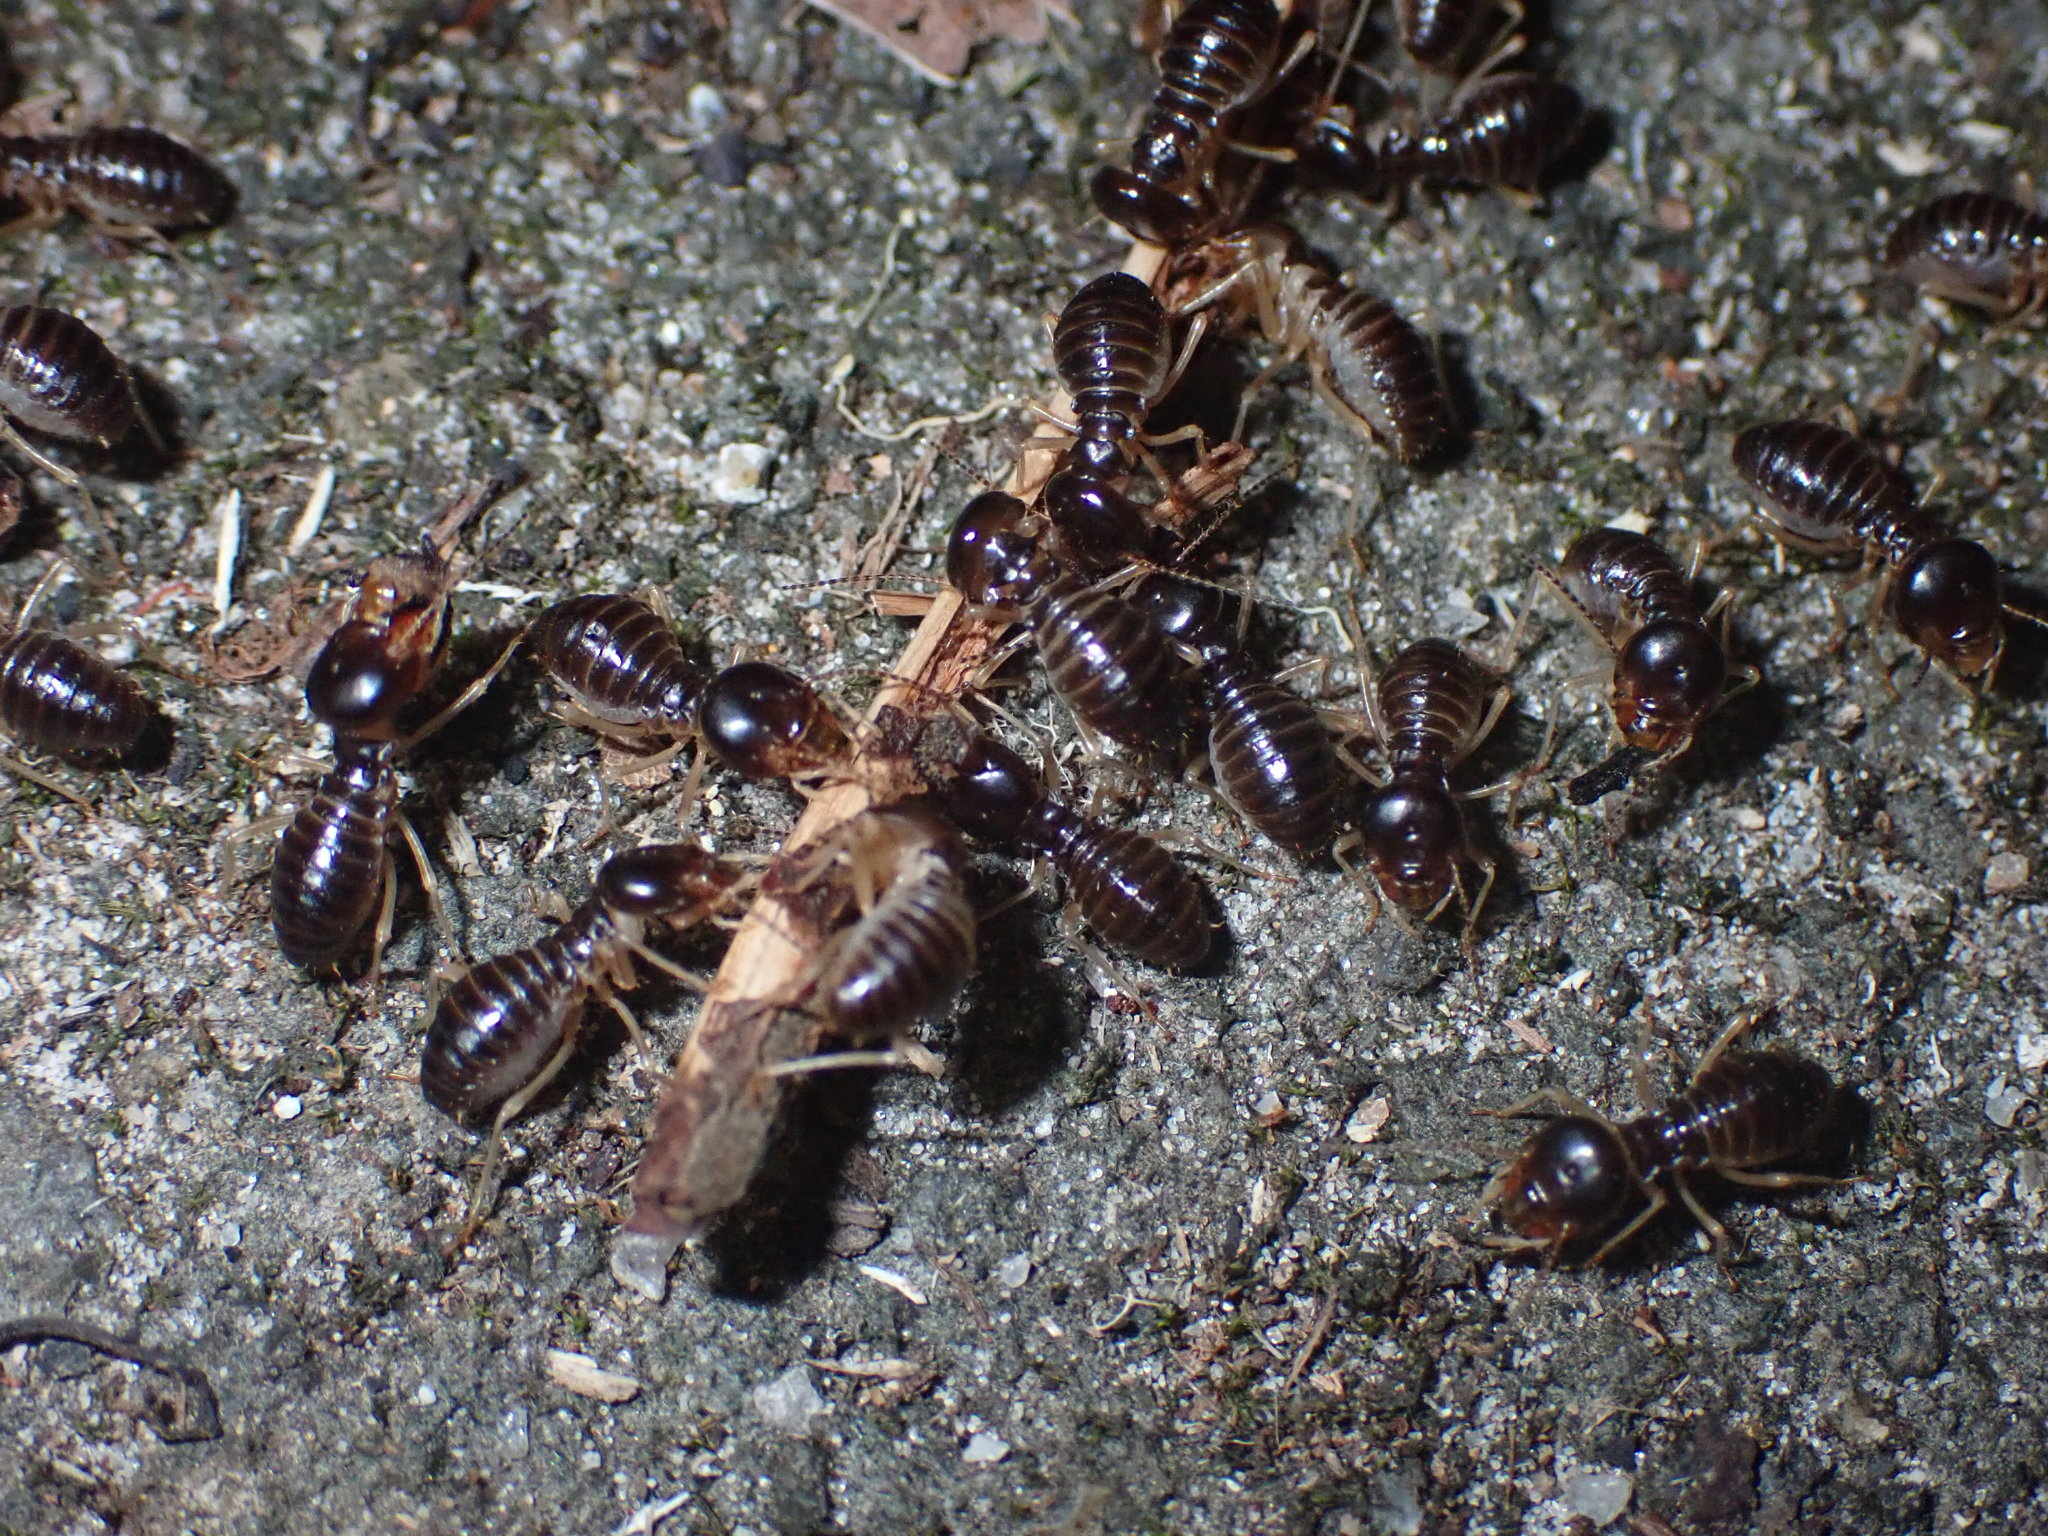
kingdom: Animalia
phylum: Arthropoda
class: Insecta
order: Blattodea
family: Termitidae
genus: Macrotermes
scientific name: Macrotermes carbonarius
